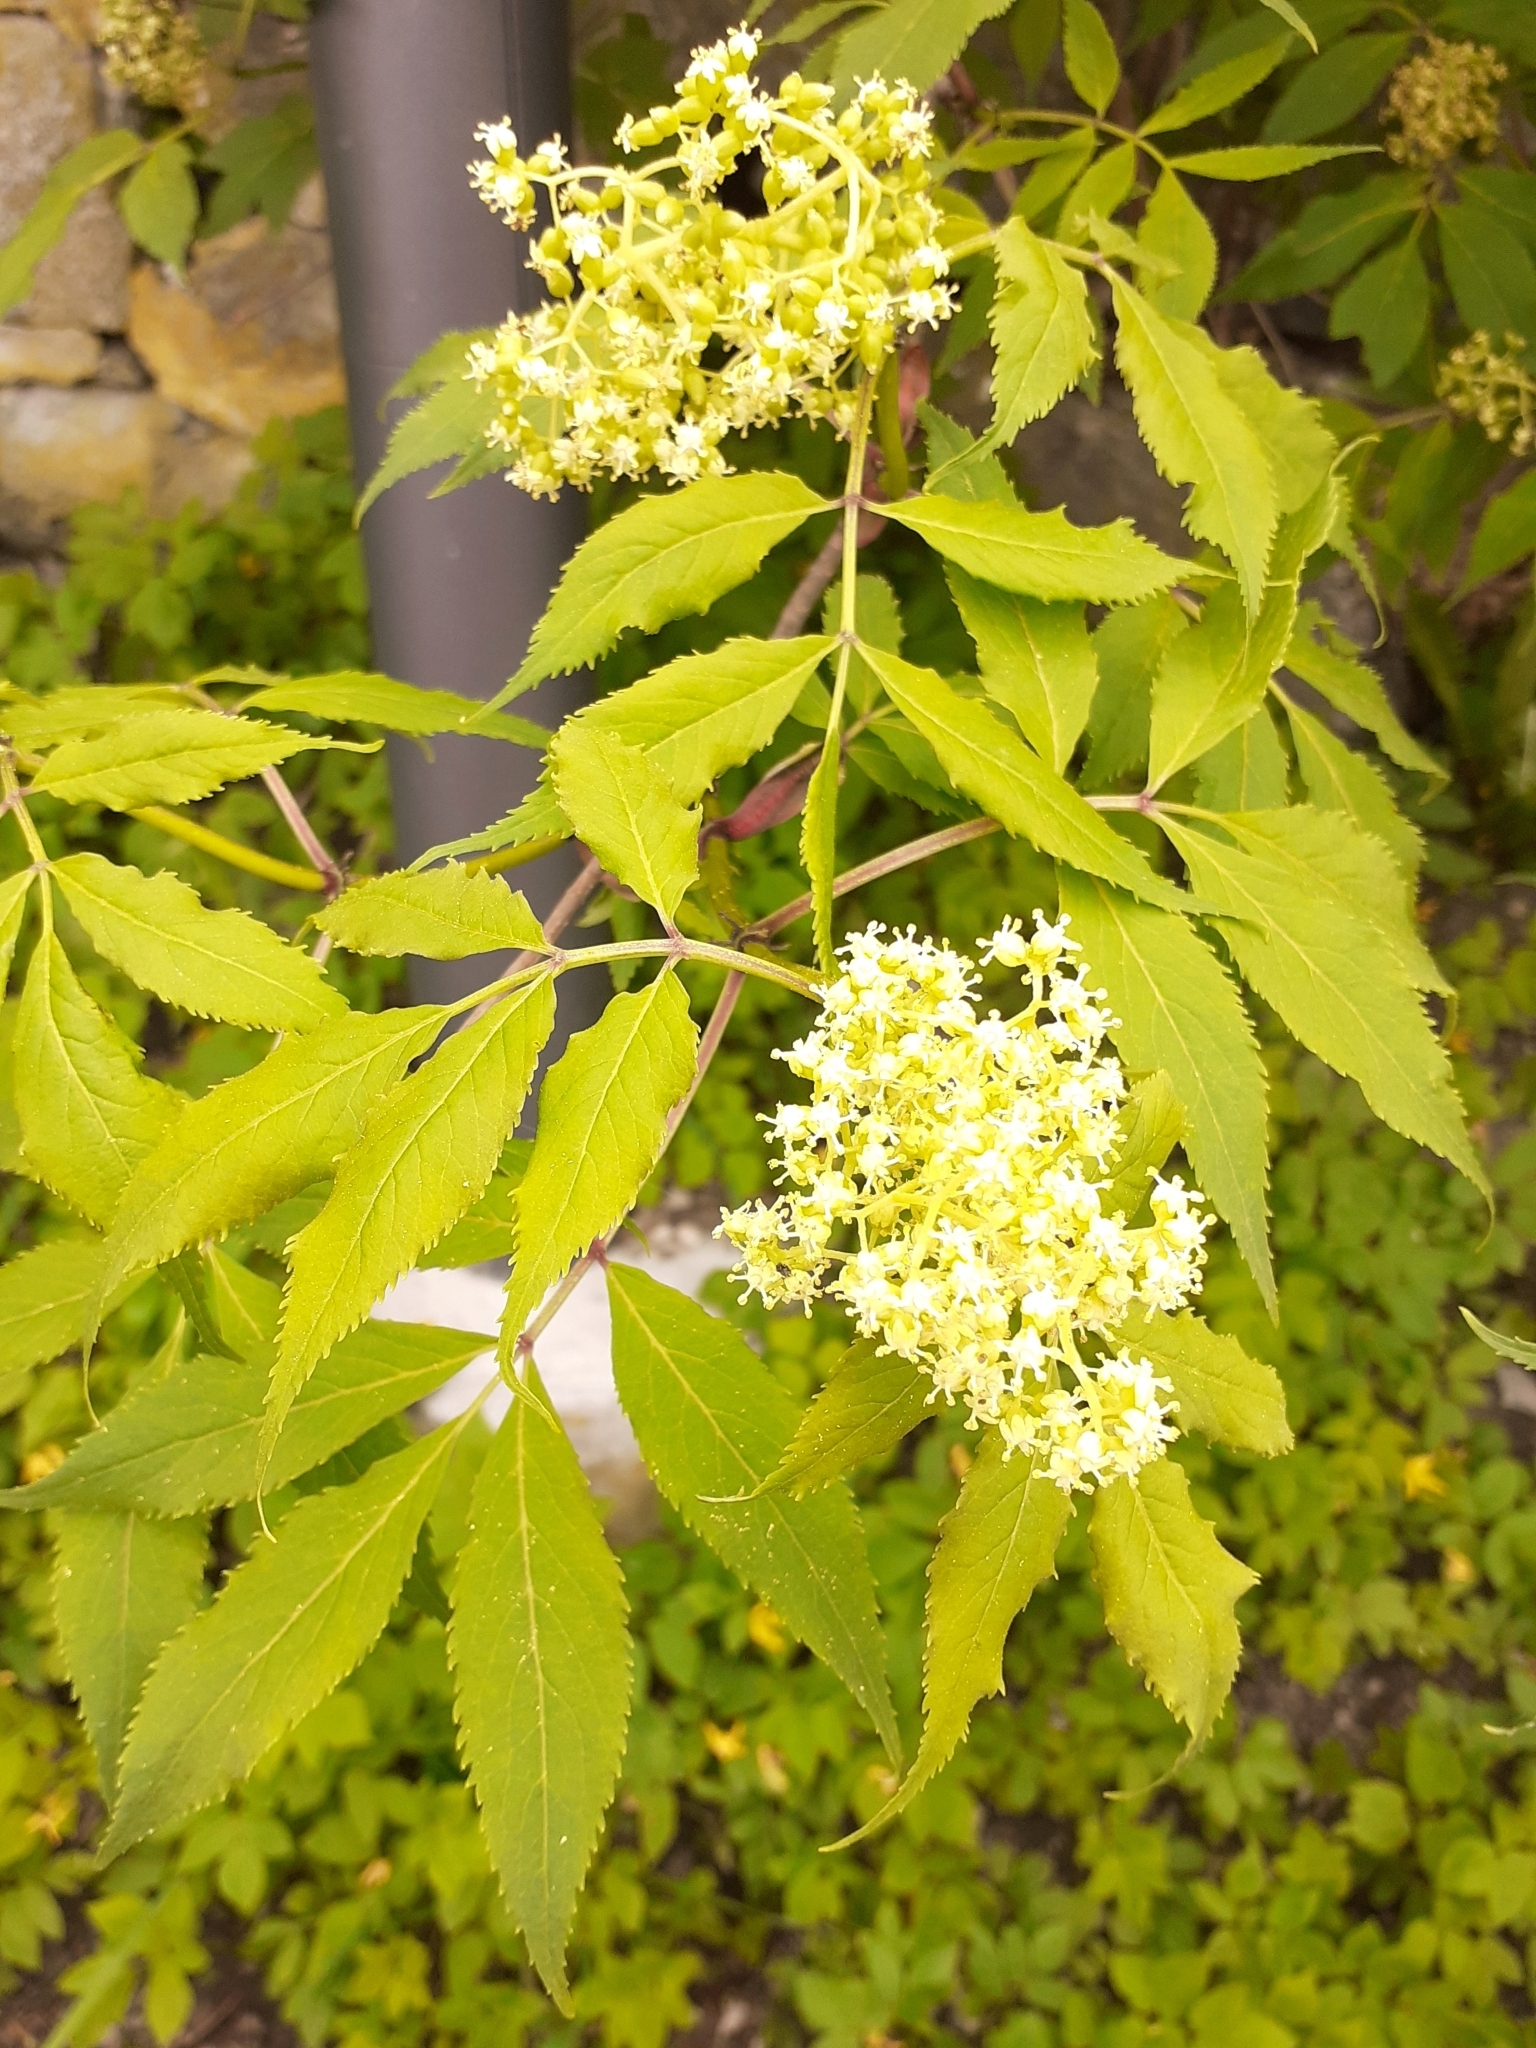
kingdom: Plantae
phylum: Tracheophyta
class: Magnoliopsida
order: Dipsacales
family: Viburnaceae
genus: Sambucus
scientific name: Sambucus racemosa
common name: Red-berried elder
